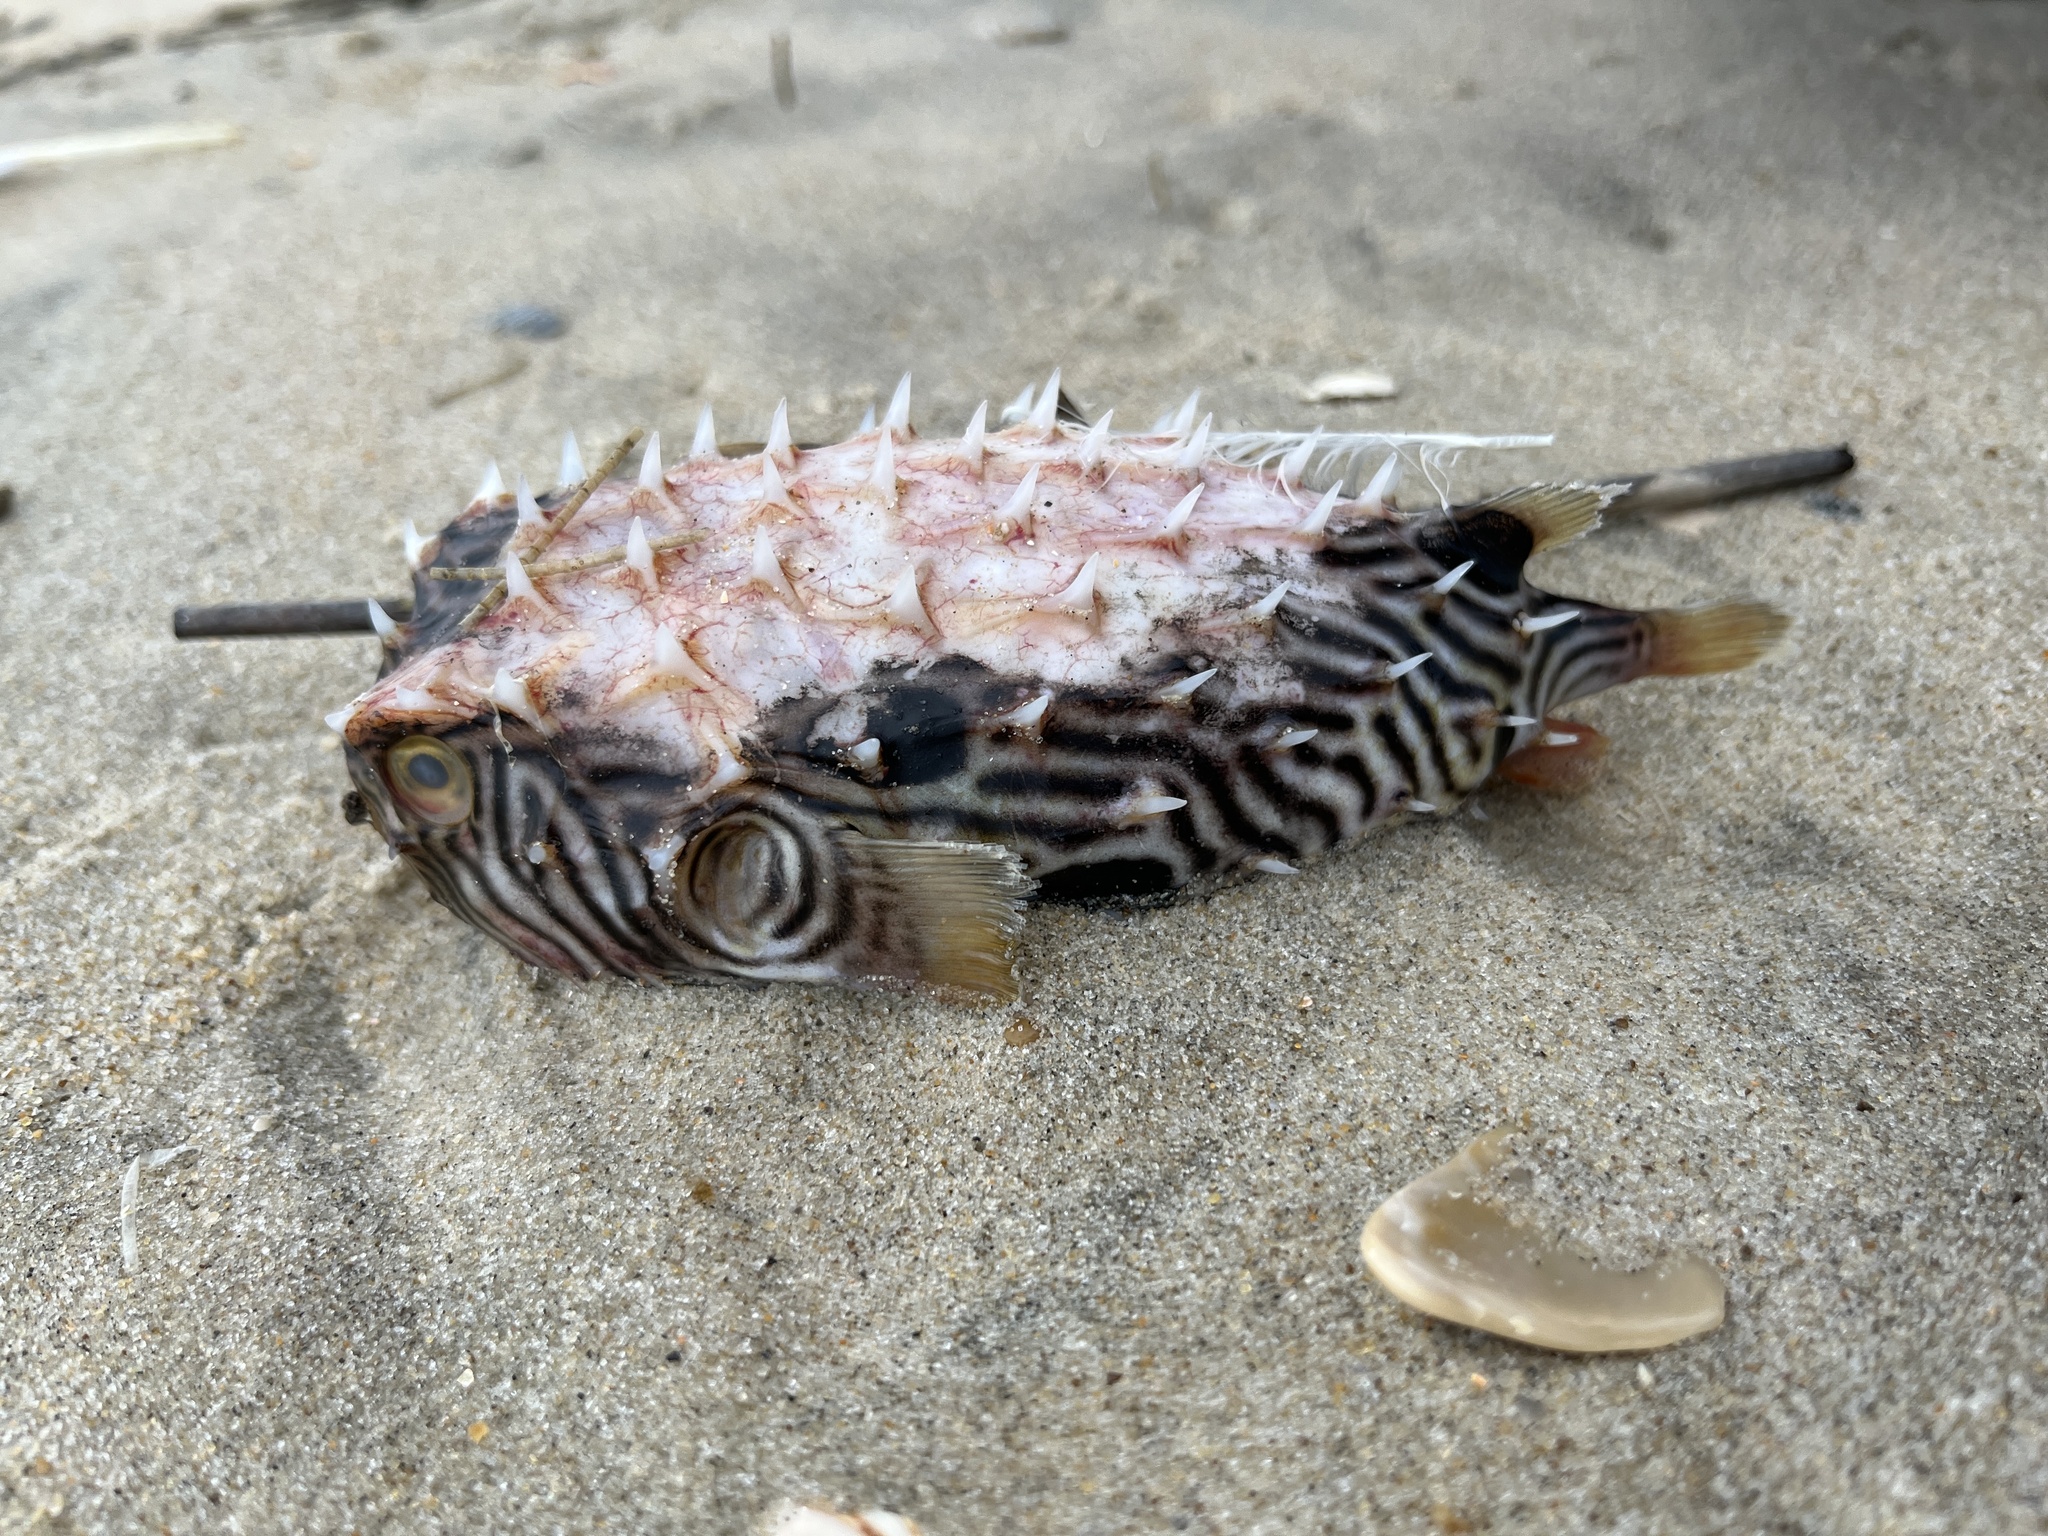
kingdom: Animalia
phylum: Chordata
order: Tetraodontiformes
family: Diodontidae
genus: Chilomycterus
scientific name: Chilomycterus schoepfii
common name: Striped burrfish
